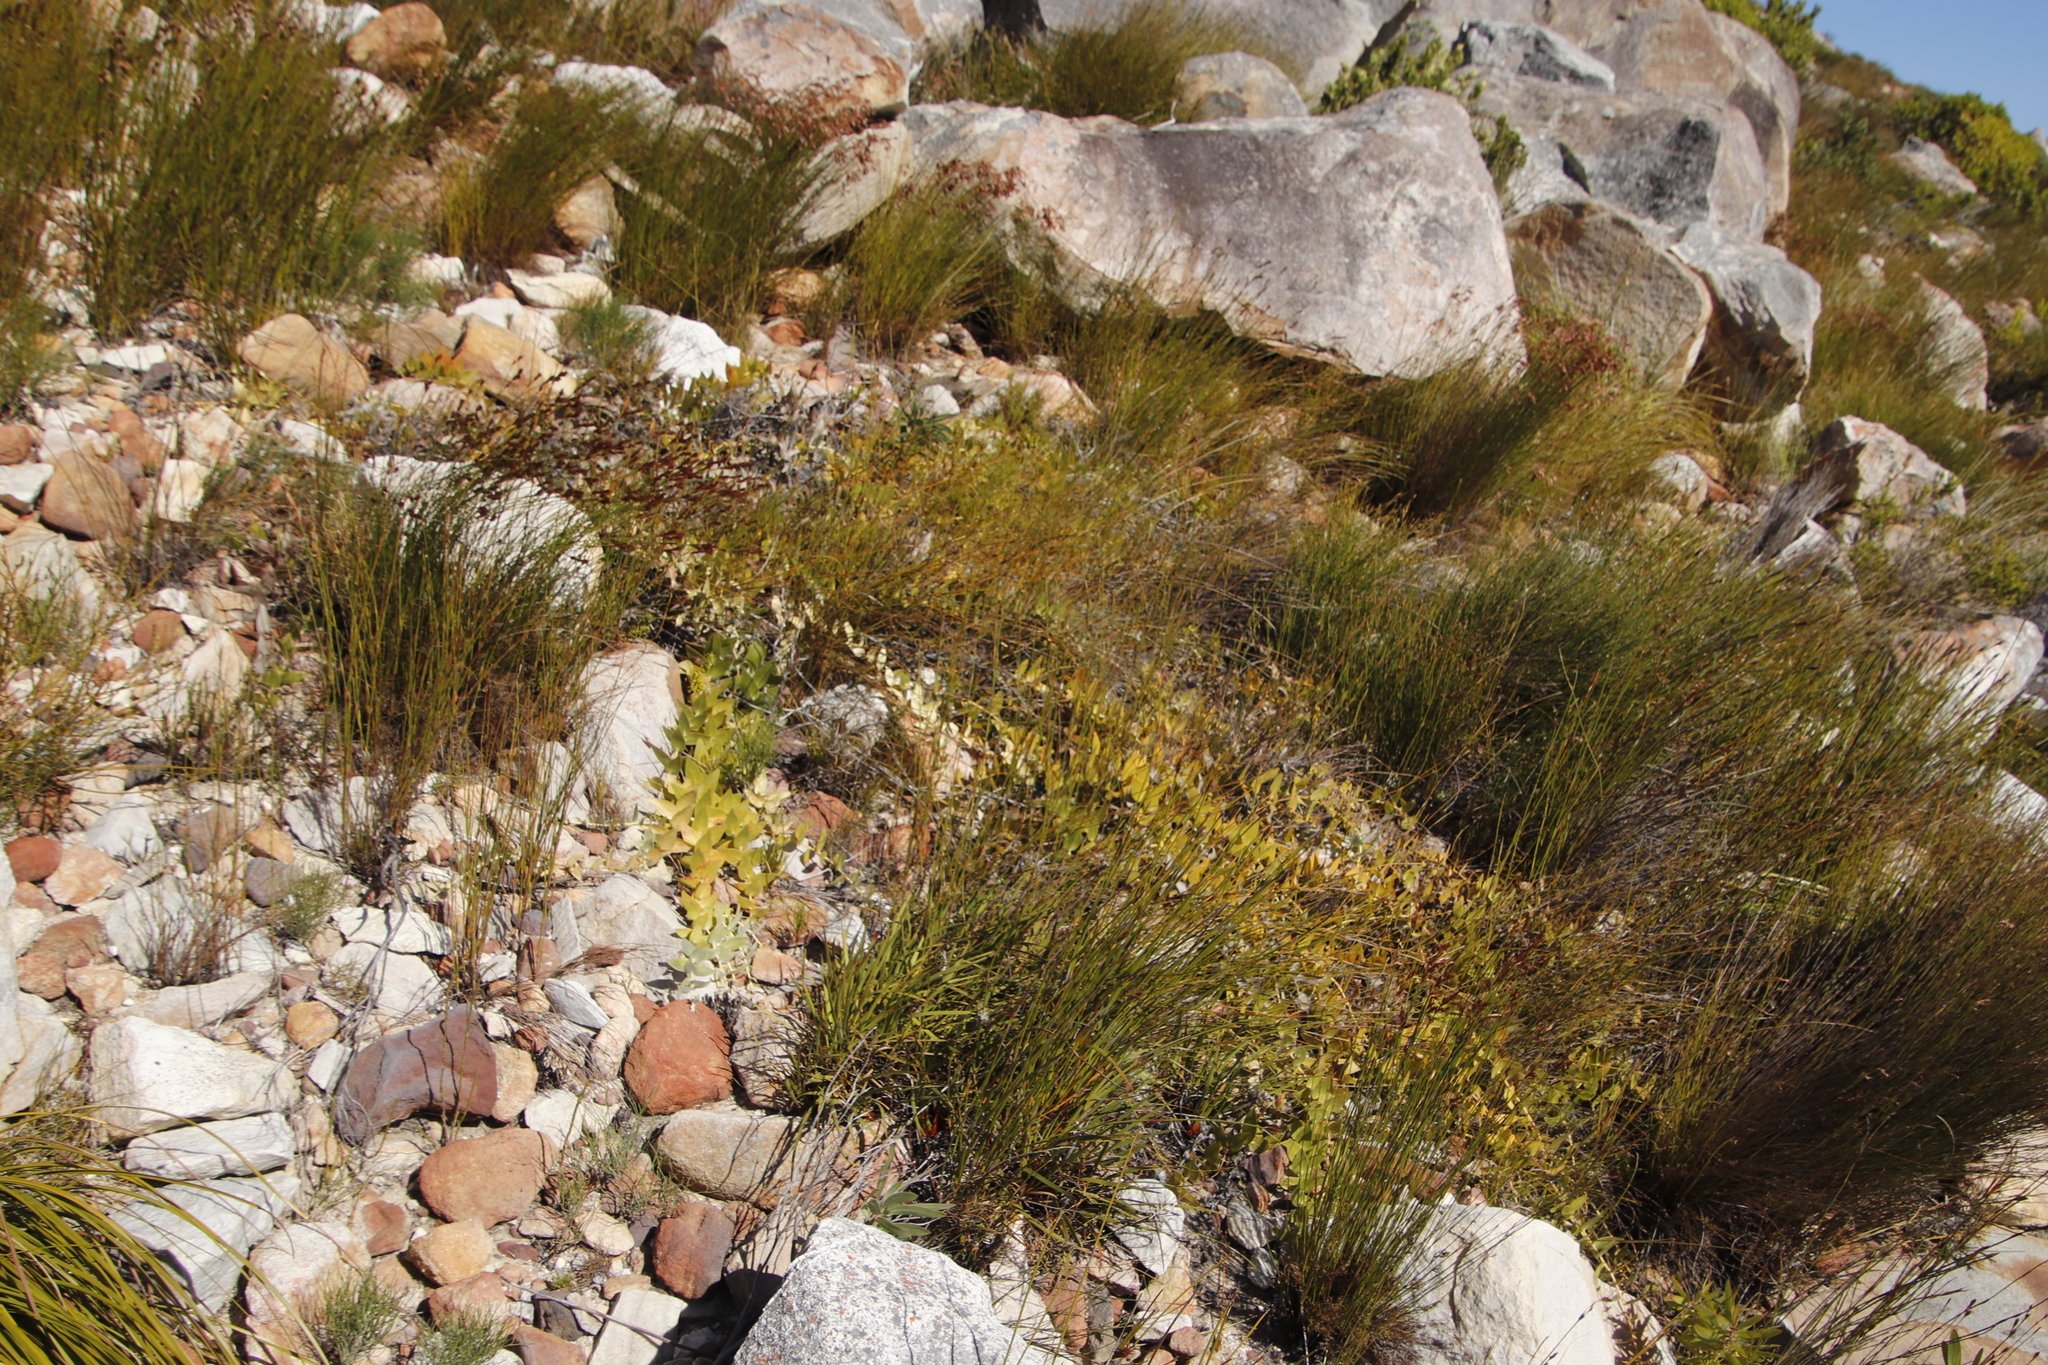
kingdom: Plantae
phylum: Tracheophyta
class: Magnoliopsida
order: Proteales
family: Proteaceae
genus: Leucospermum
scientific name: Leucospermum cordatum
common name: Heart-leaf pincushion
